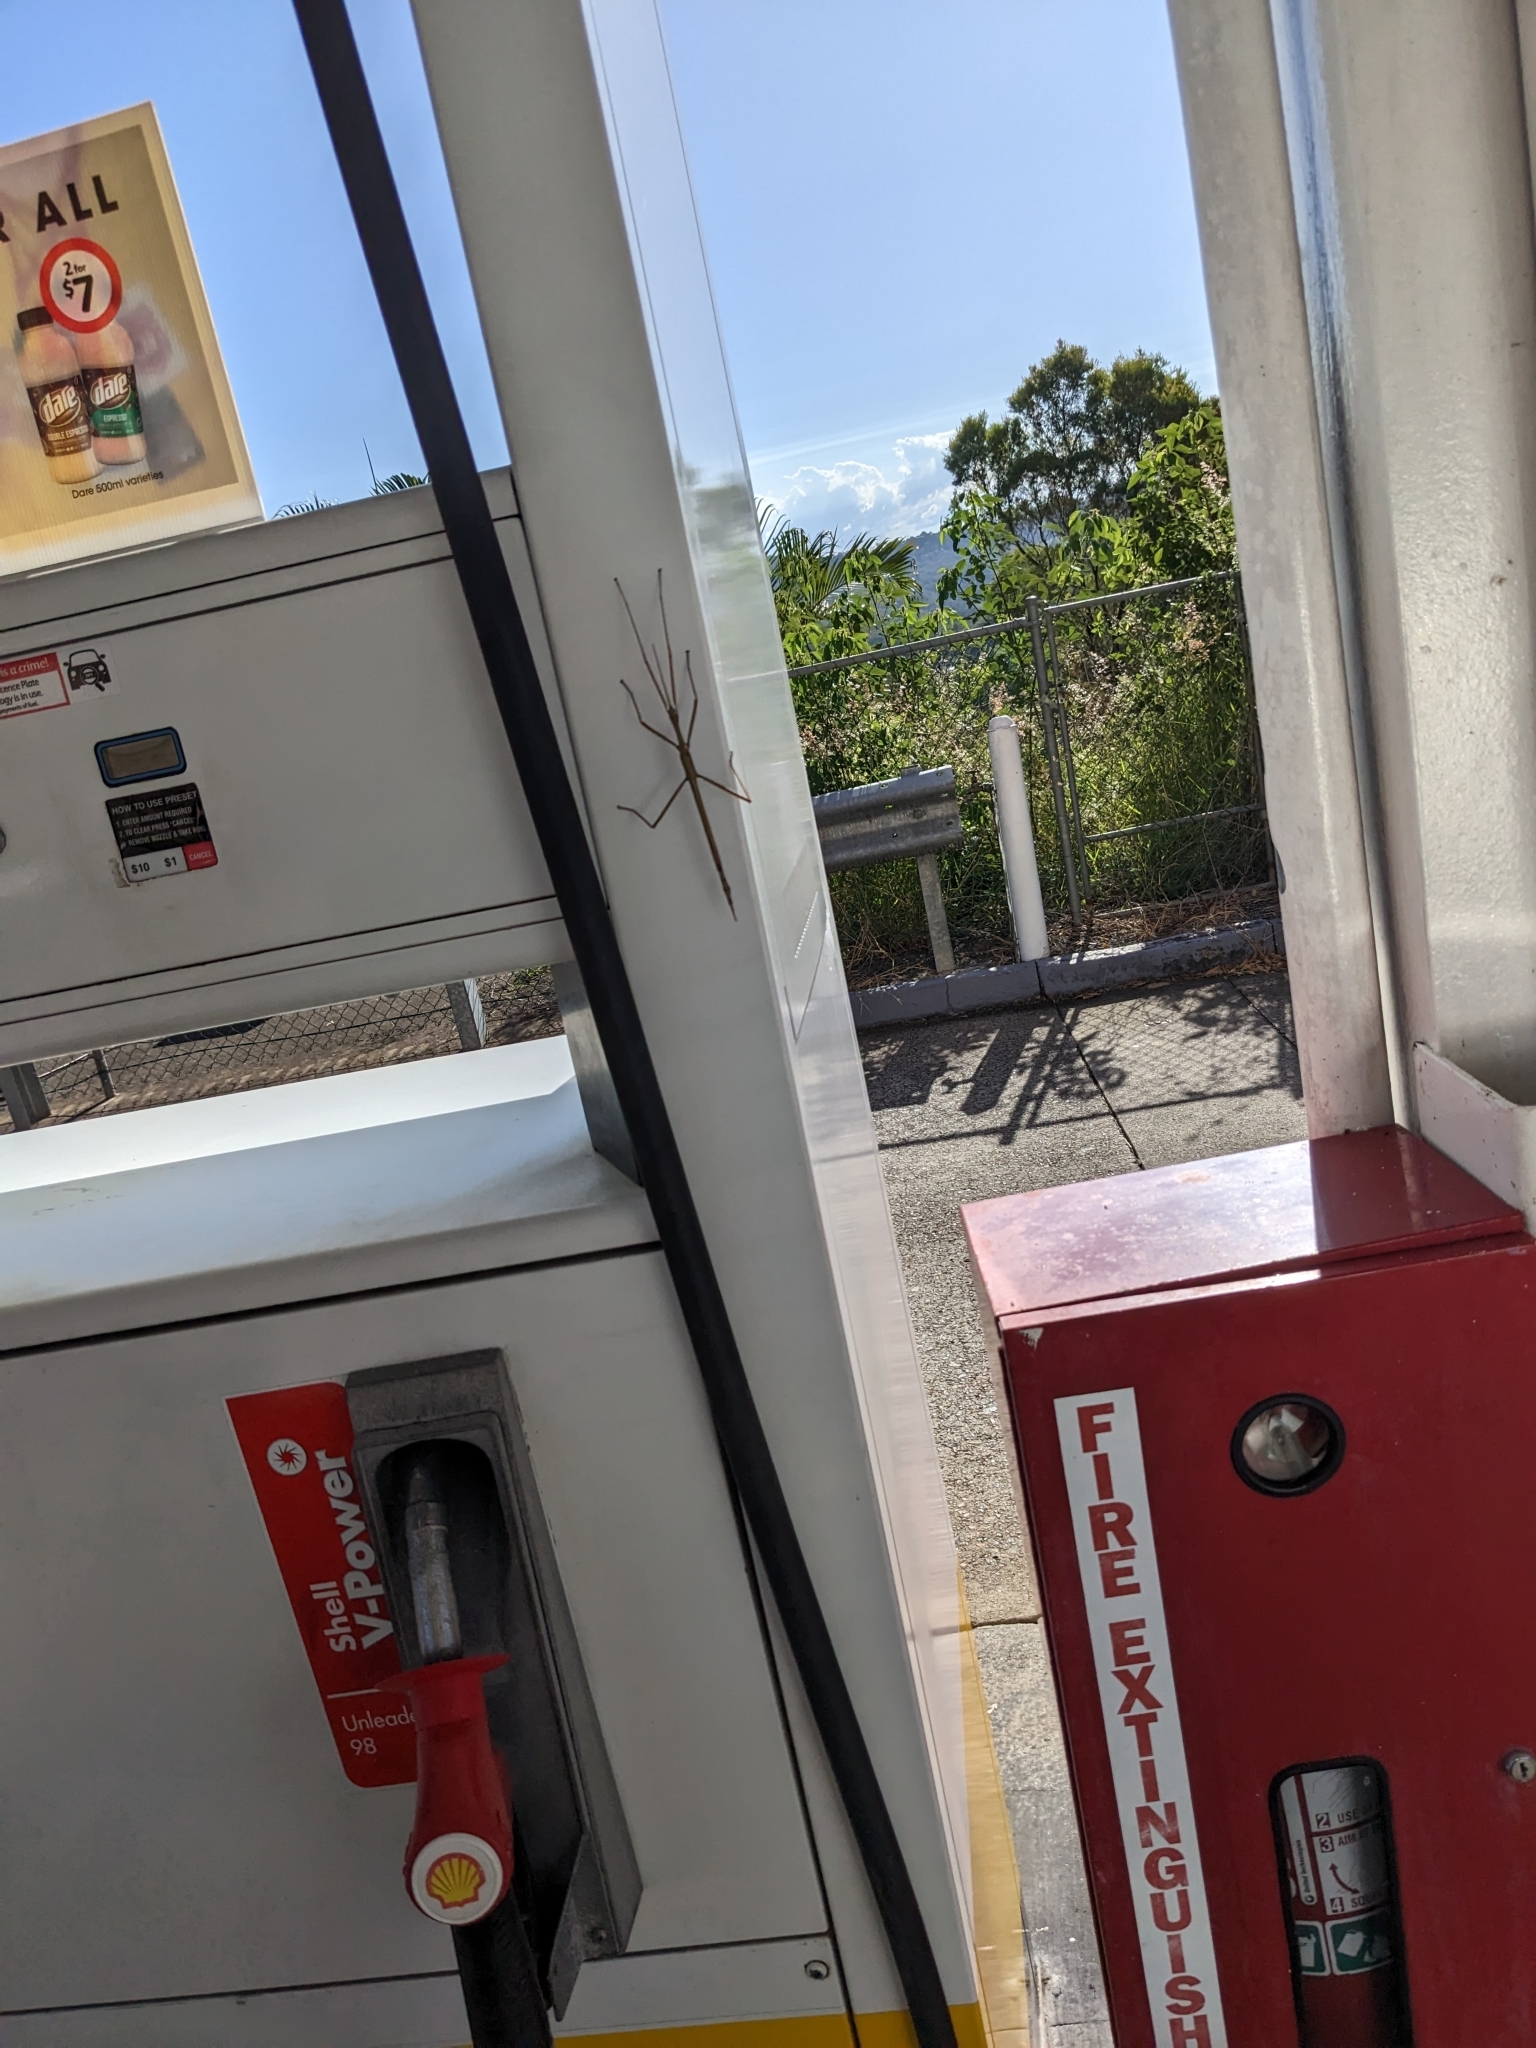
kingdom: Animalia
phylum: Arthropoda
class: Insecta
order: Phasmida
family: Phasmatidae
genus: Tropidoderus
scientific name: Tropidoderus childrenii
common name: Children's stick insect
